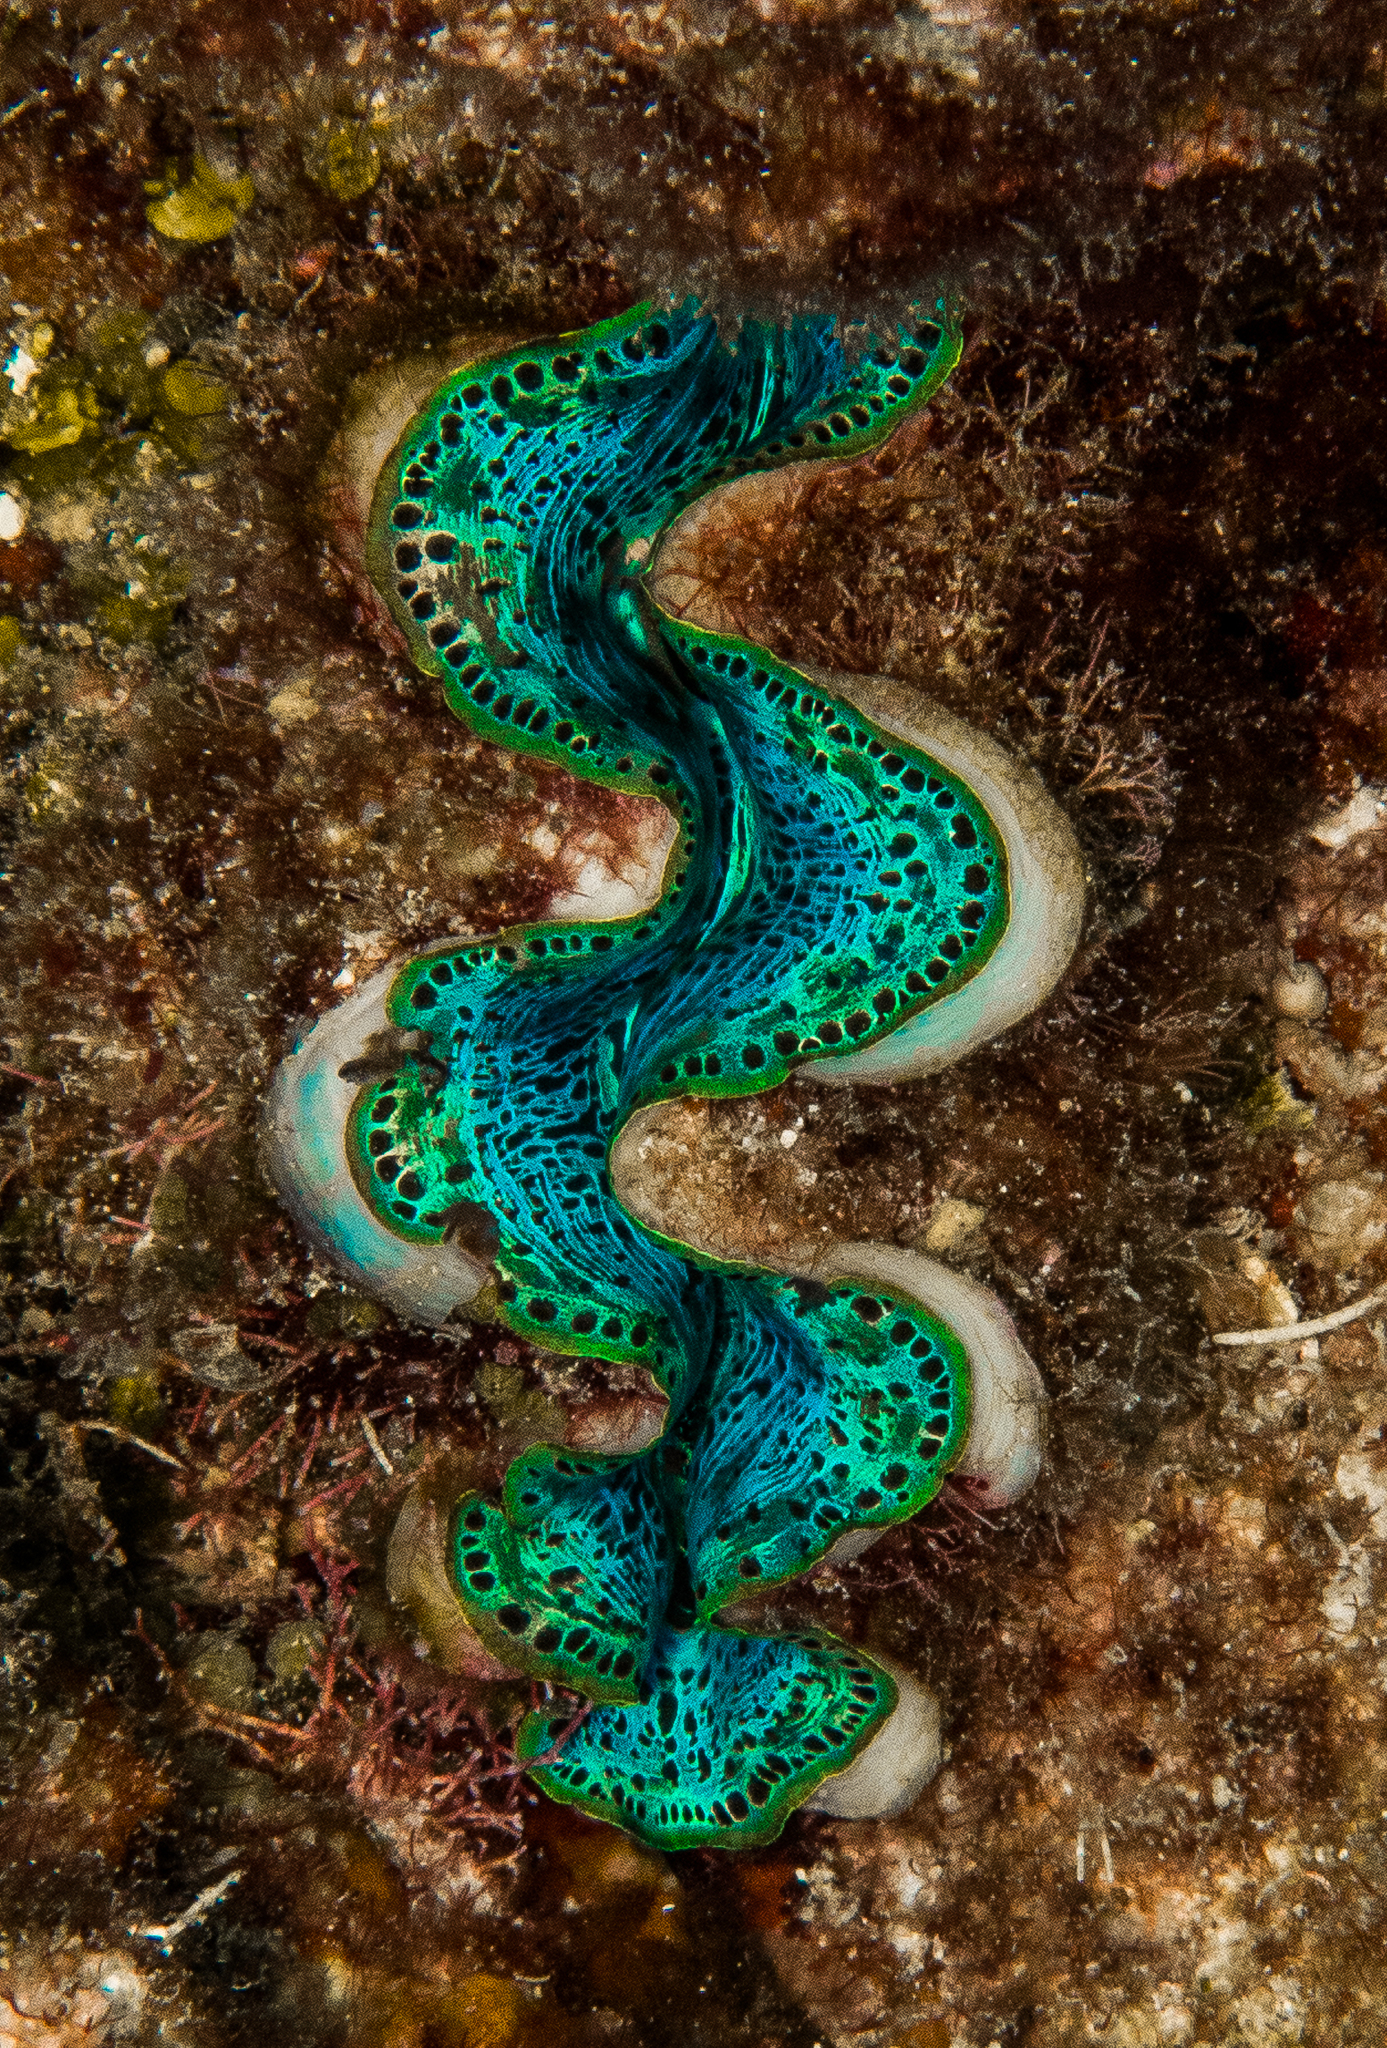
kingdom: Animalia
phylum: Mollusca
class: Bivalvia
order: Cardiida
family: Cardiidae
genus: Tridacna
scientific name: Tridacna crocea
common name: Boring clam
